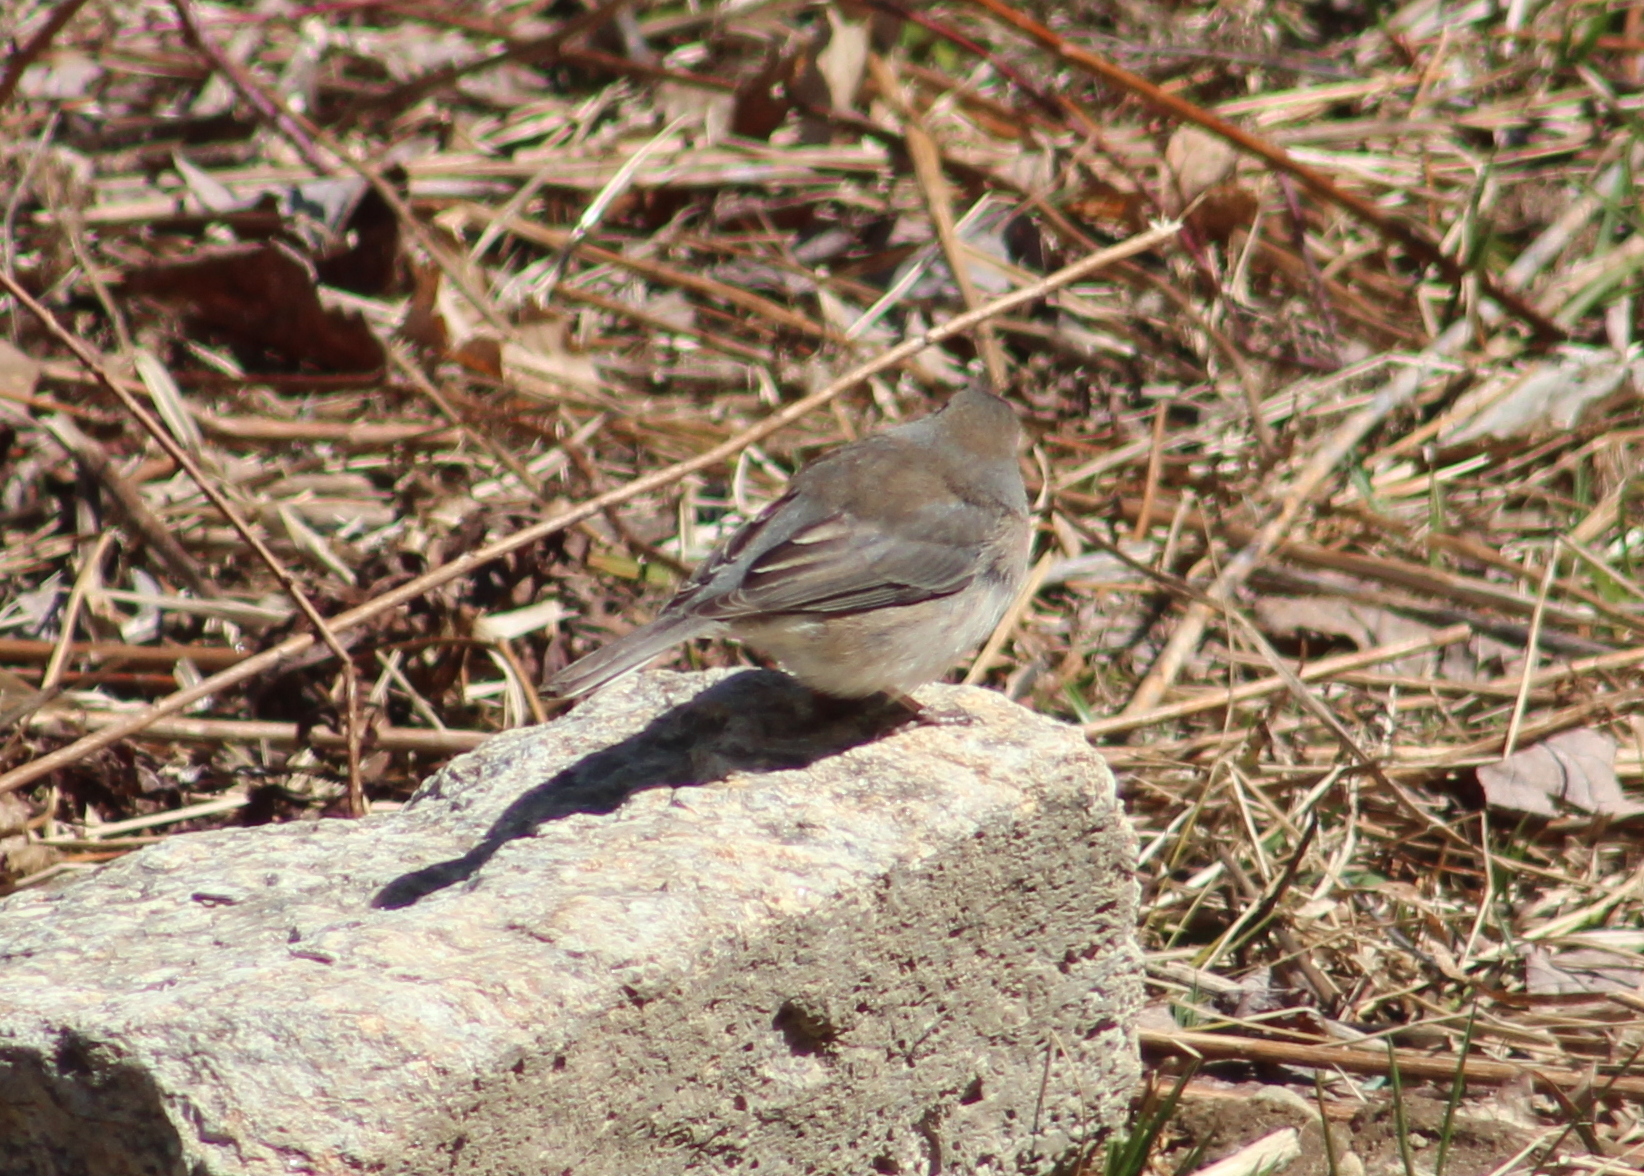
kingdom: Animalia
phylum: Chordata
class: Aves
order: Passeriformes
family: Passerellidae
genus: Junco
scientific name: Junco hyemalis
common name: Dark-eyed junco
